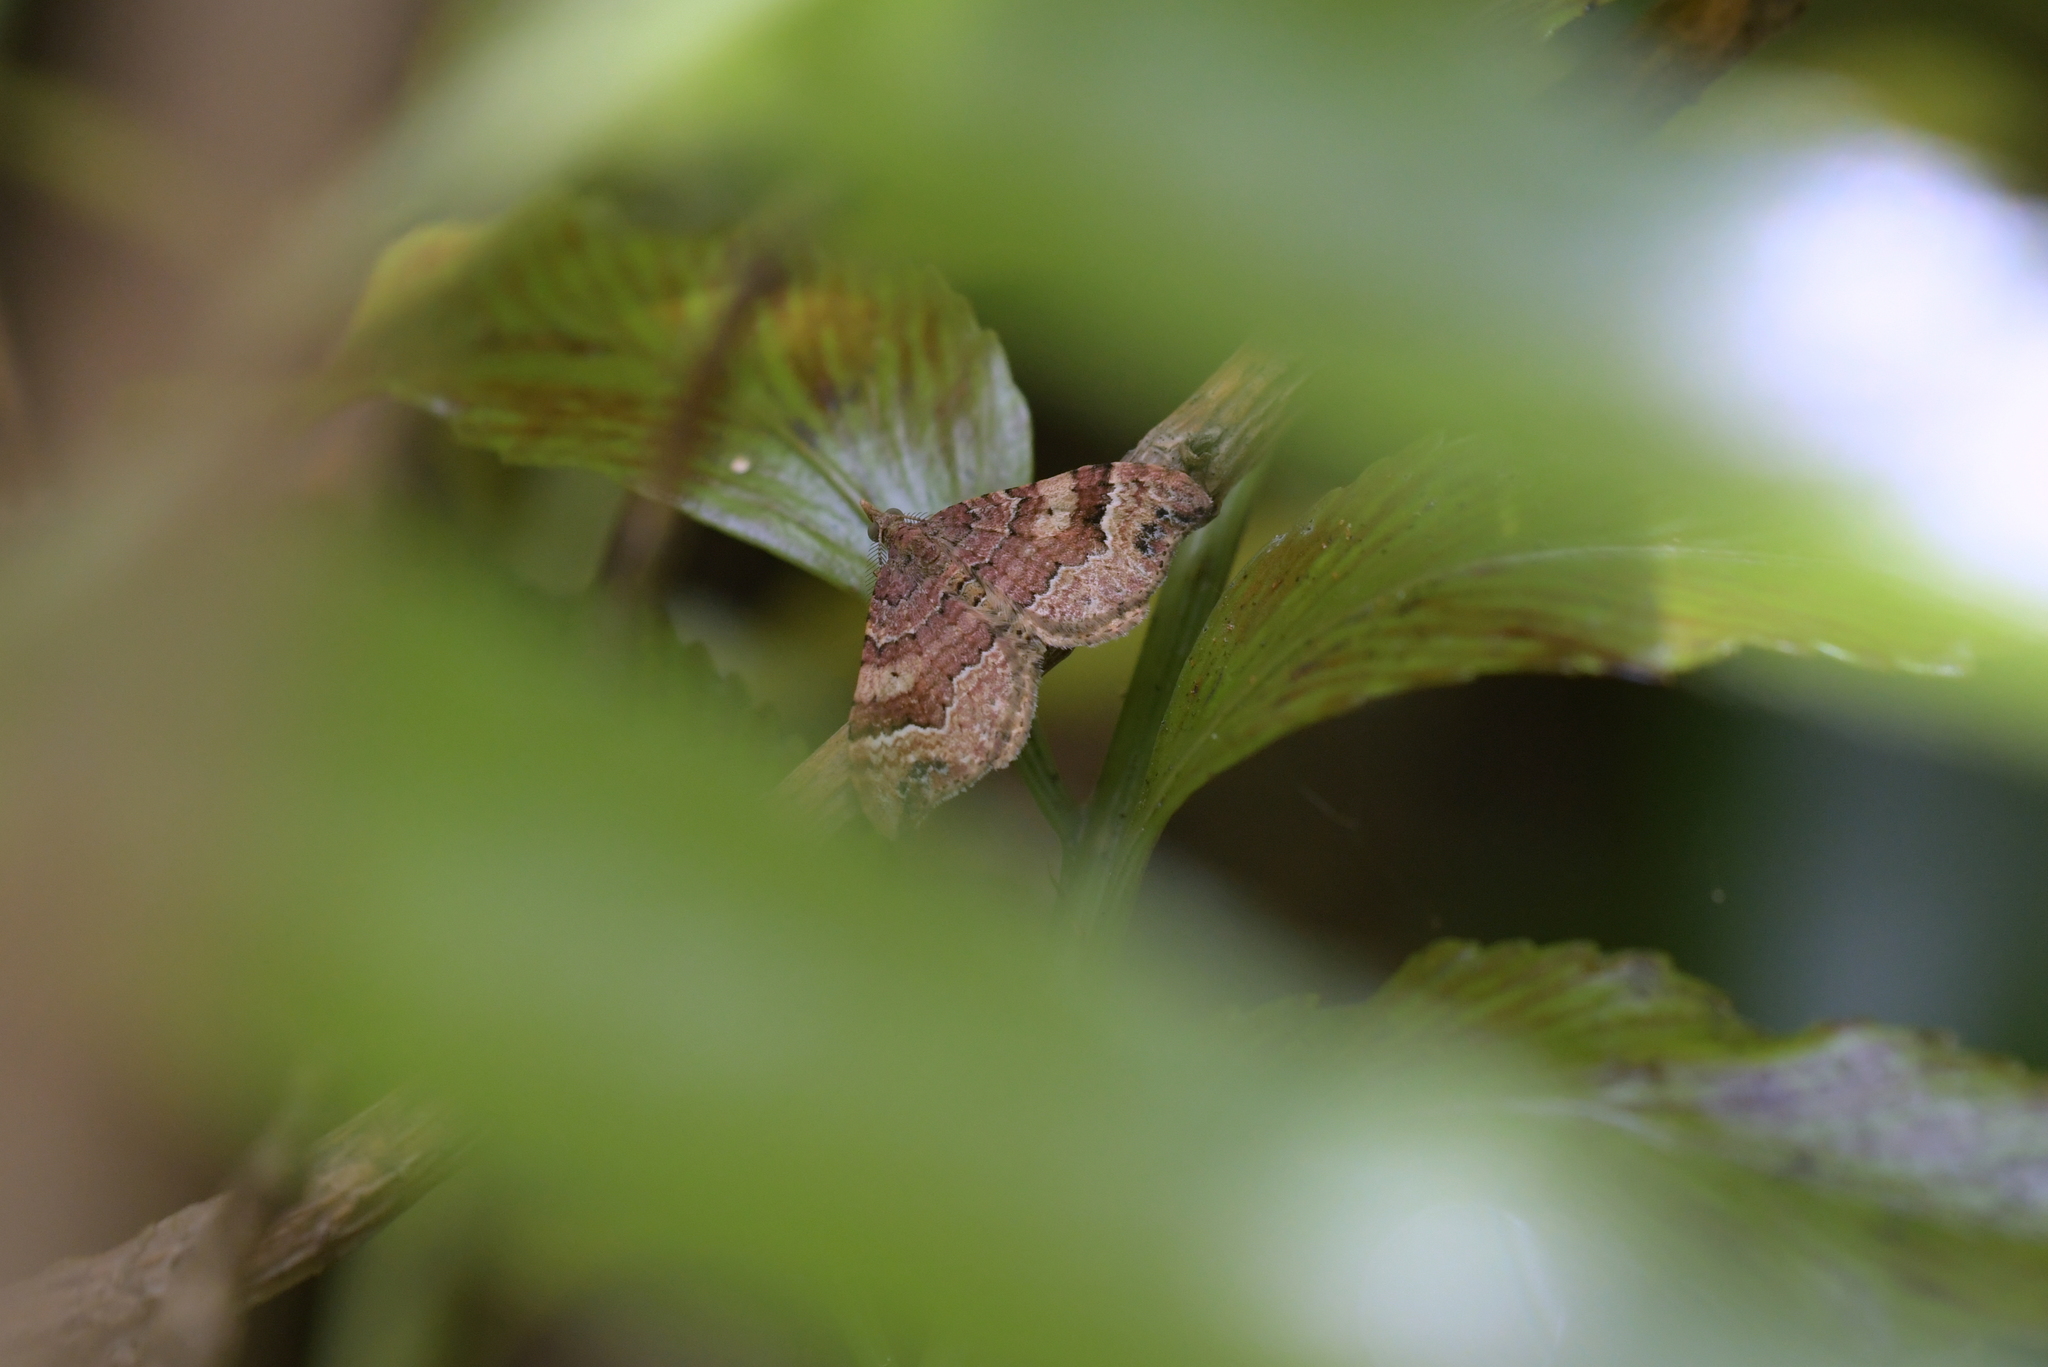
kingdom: Animalia
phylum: Arthropoda
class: Insecta
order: Lepidoptera
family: Geometridae
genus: Homodotis
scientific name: Homodotis megaspilata
